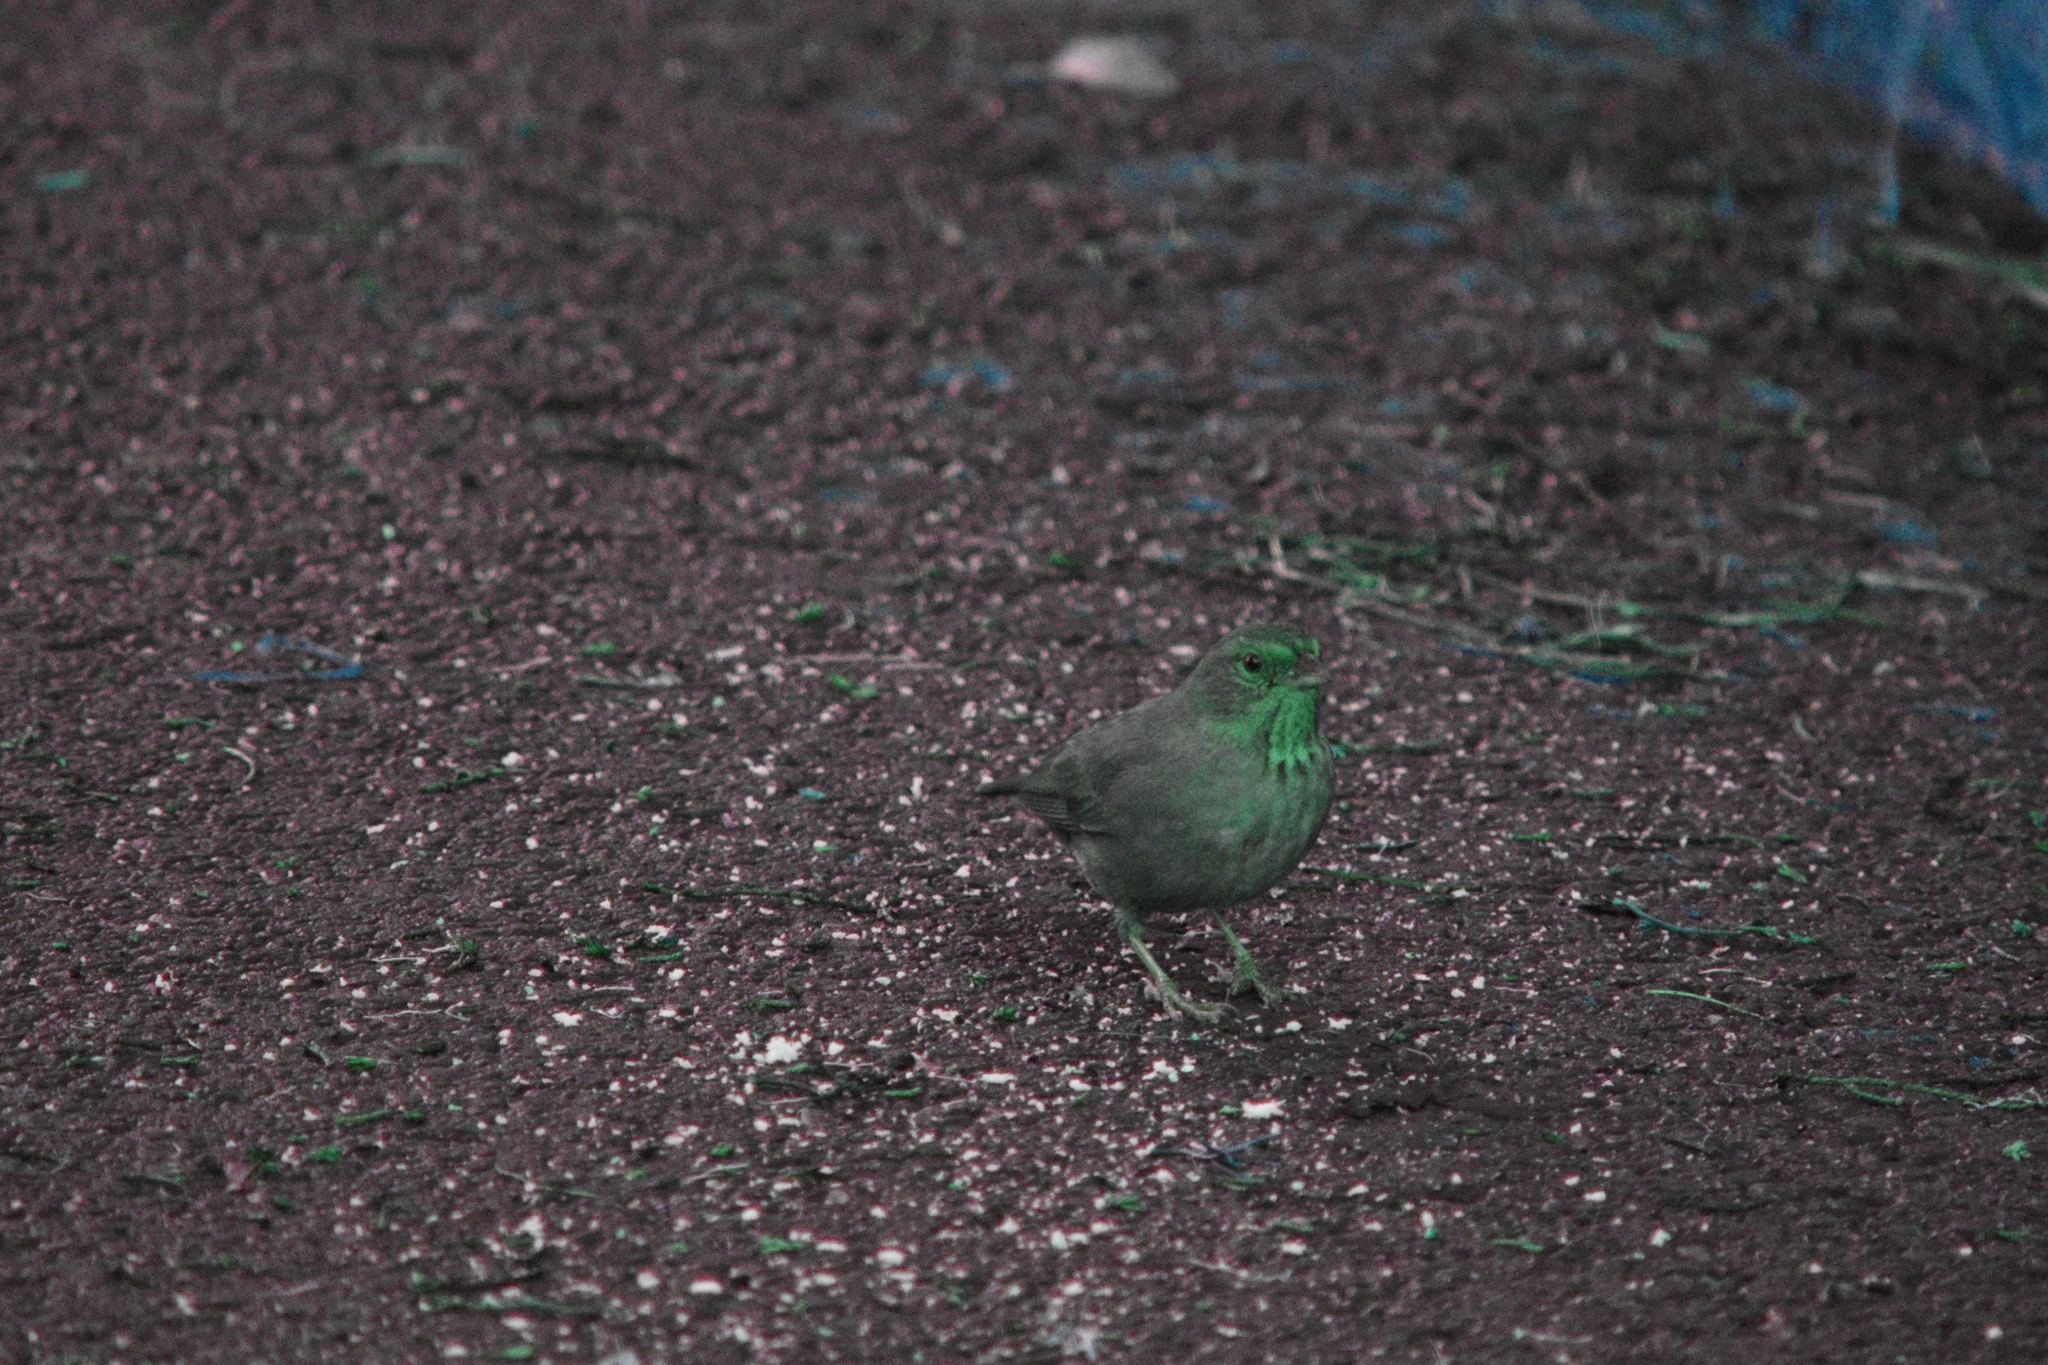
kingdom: Animalia
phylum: Chordata
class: Aves
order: Passeriformes
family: Passerellidae
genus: Melozone
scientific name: Melozone crissalis
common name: California towhee
